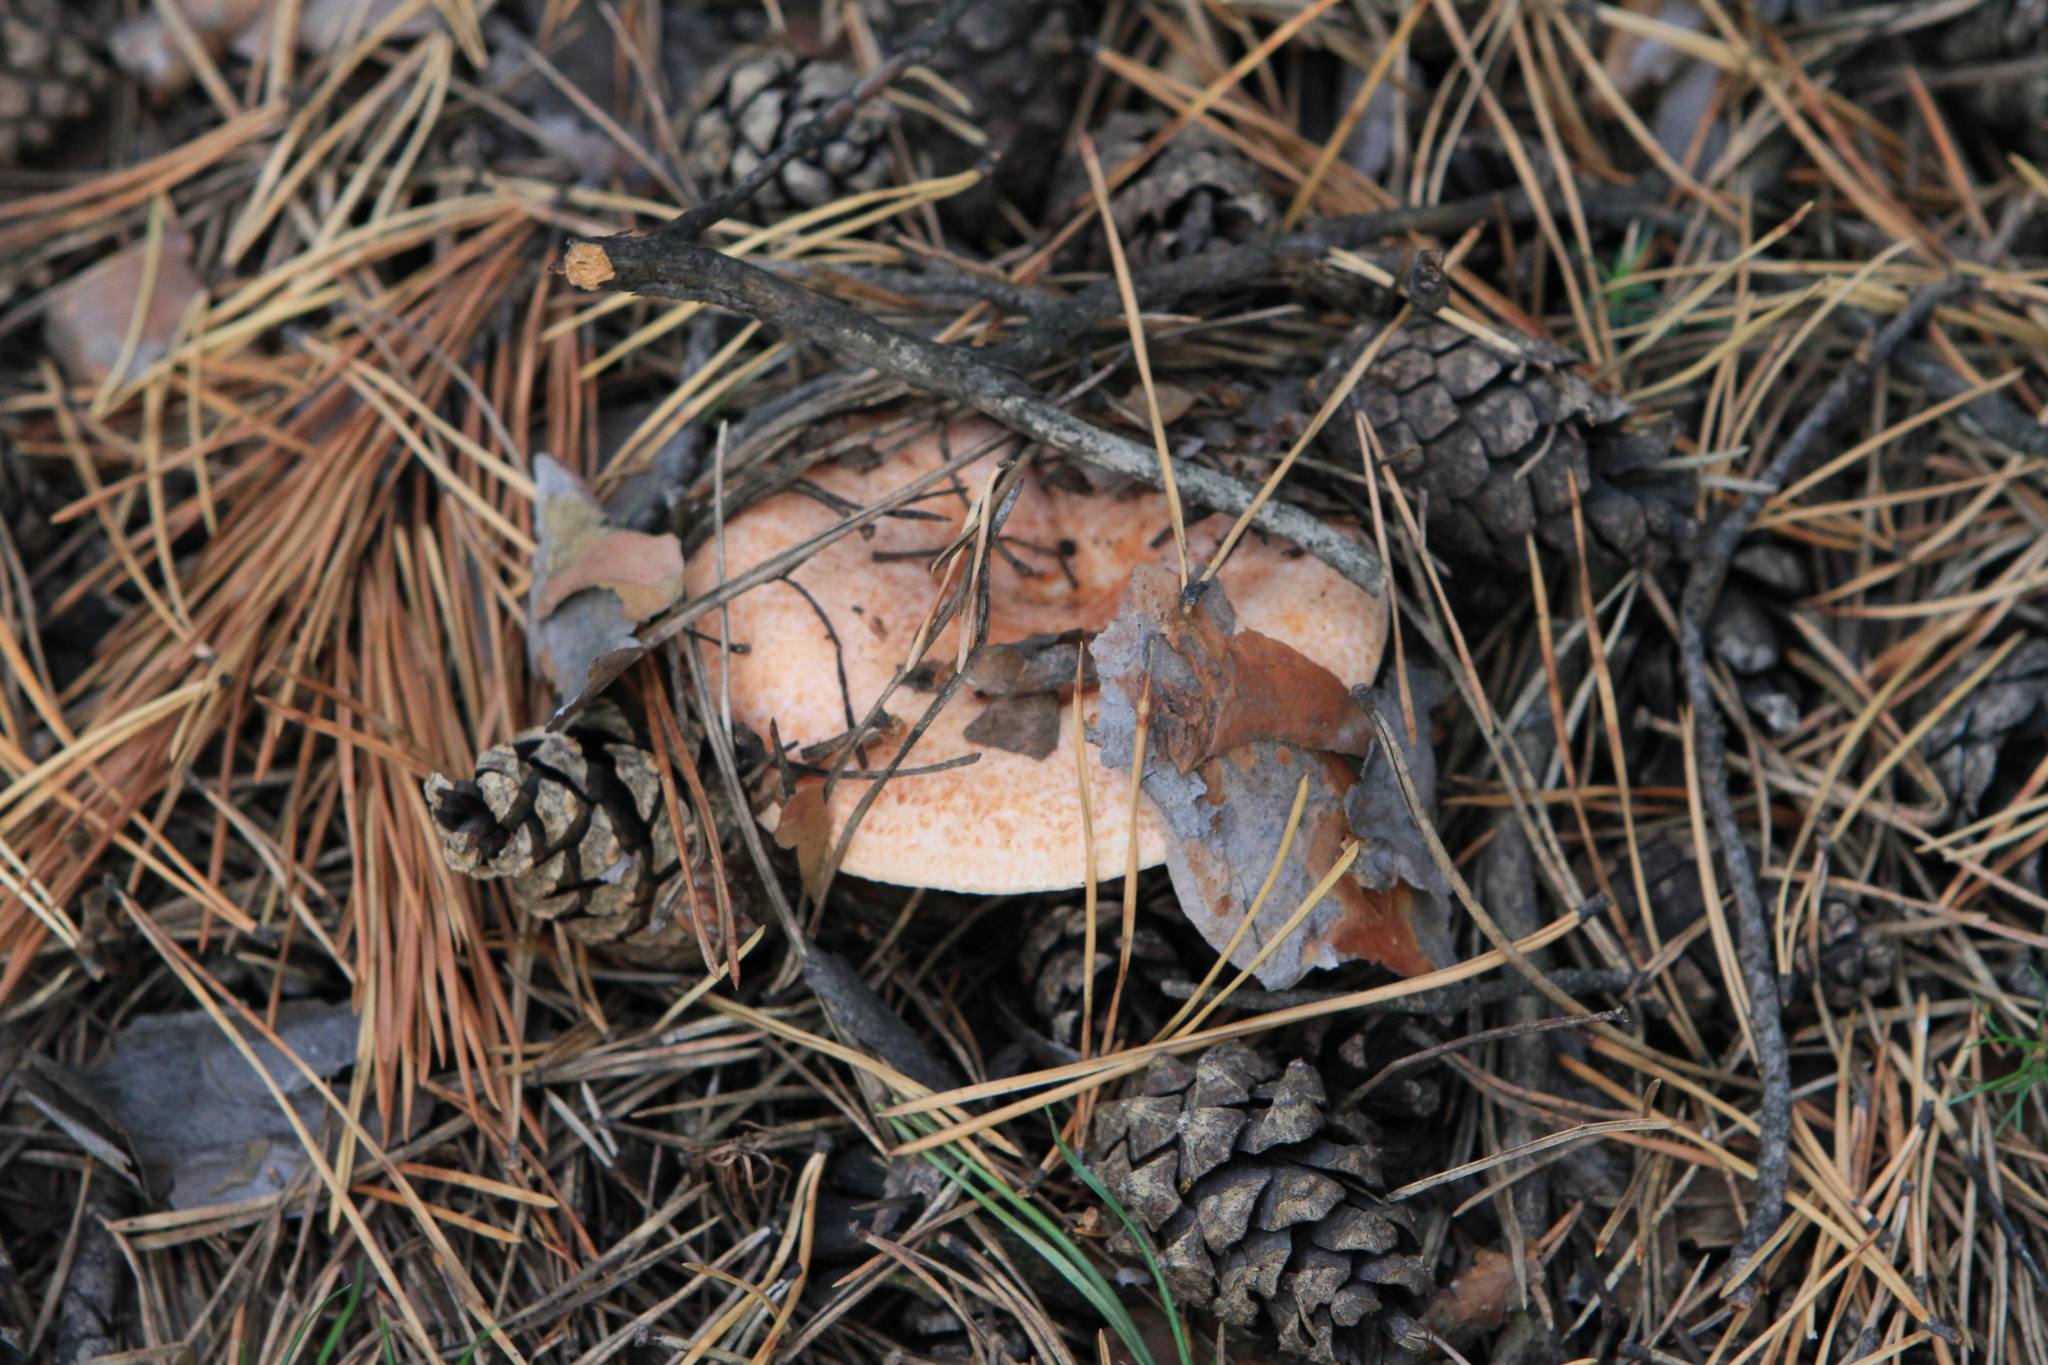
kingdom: Fungi
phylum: Basidiomycota
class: Agaricomycetes
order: Russulales
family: Russulaceae
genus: Lactarius
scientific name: Lactarius deliciosus
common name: Saffron milk-cap
